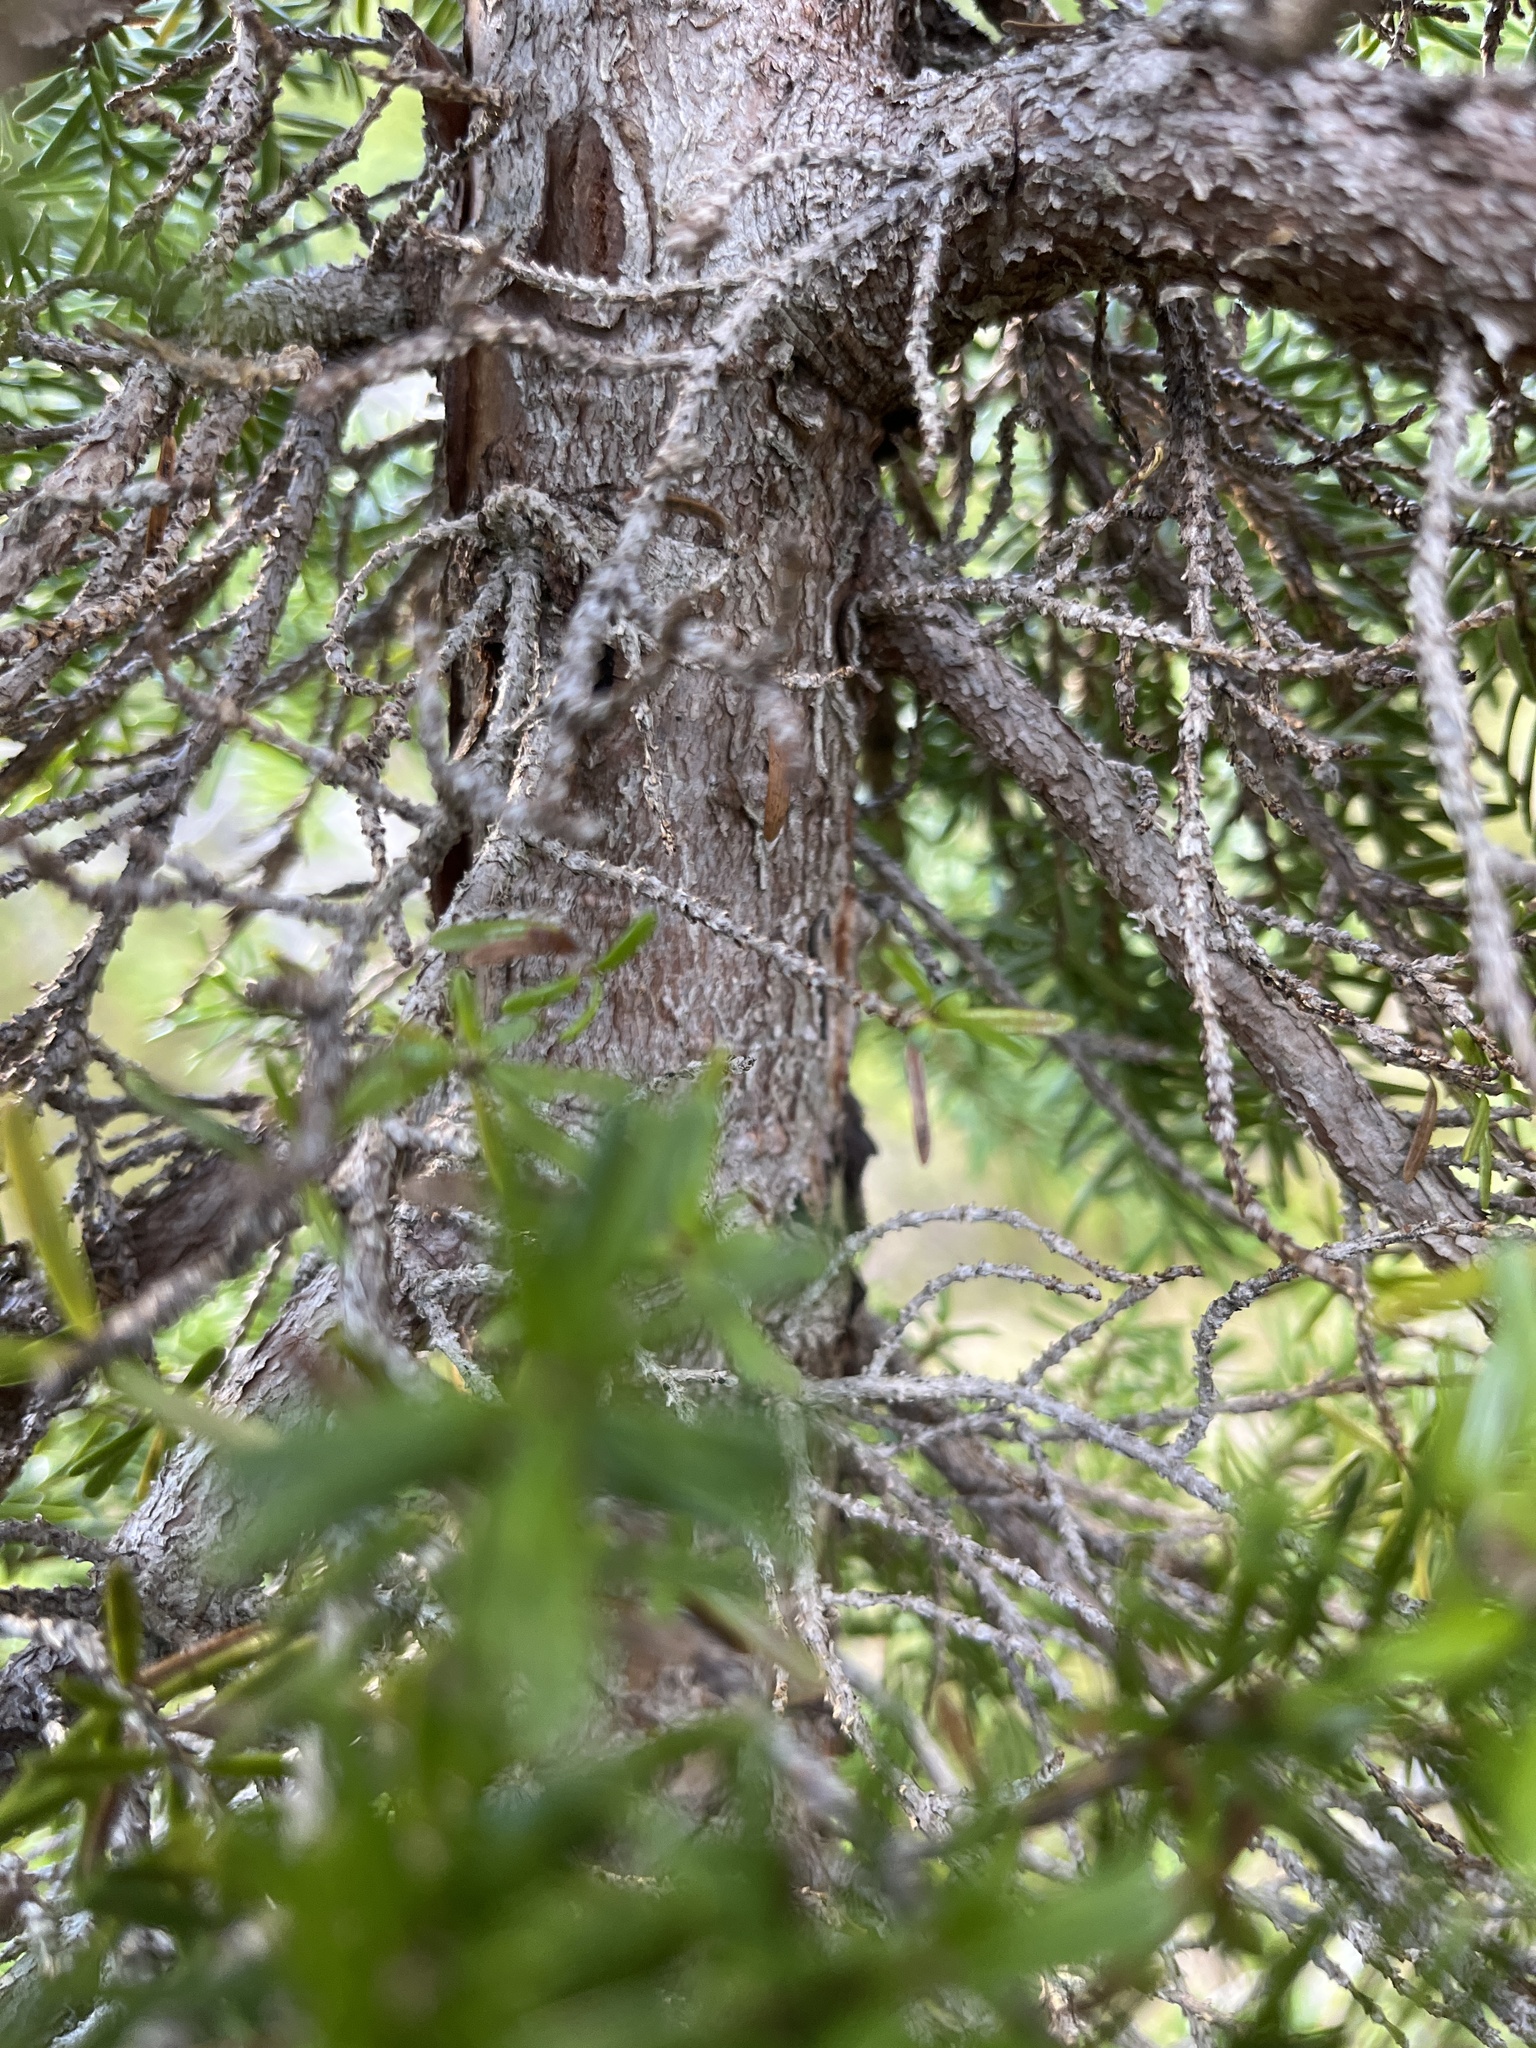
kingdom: Plantae
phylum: Tracheophyta
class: Pinopsida
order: Pinales
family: Pinaceae
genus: Tsuga
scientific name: Tsuga mertensiana
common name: Mountain hemlock
